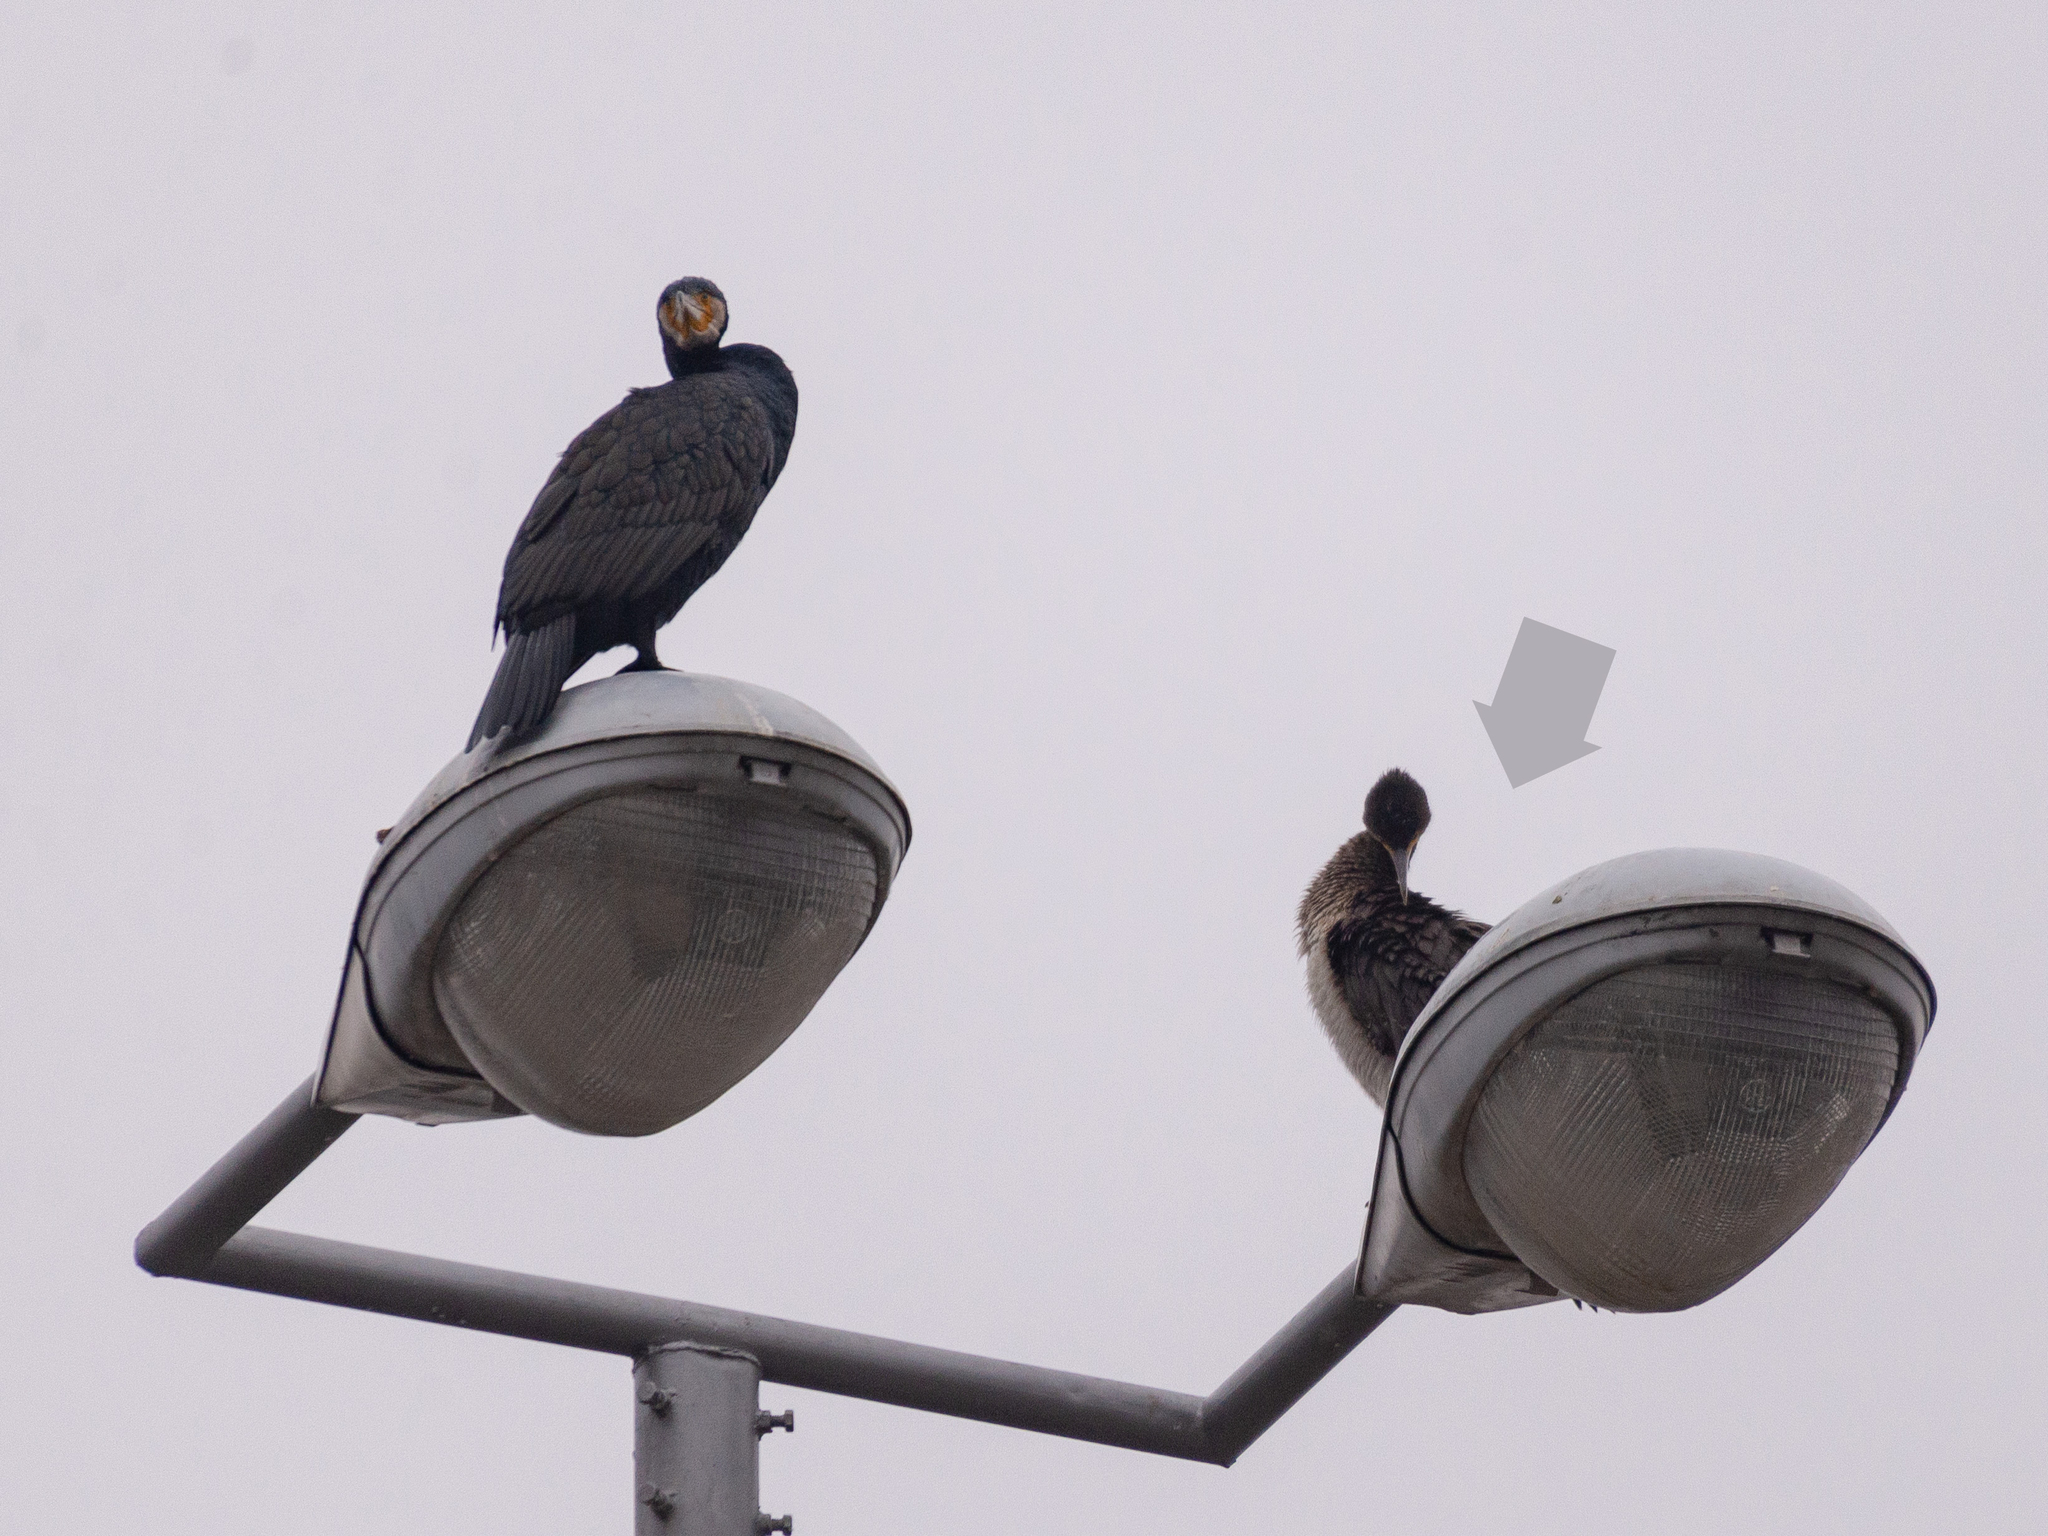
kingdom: Animalia
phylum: Chordata
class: Aves
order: Suliformes
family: Phalacrocoracidae
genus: Phalacrocorax
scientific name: Phalacrocorax carbo
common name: Great cormorant
